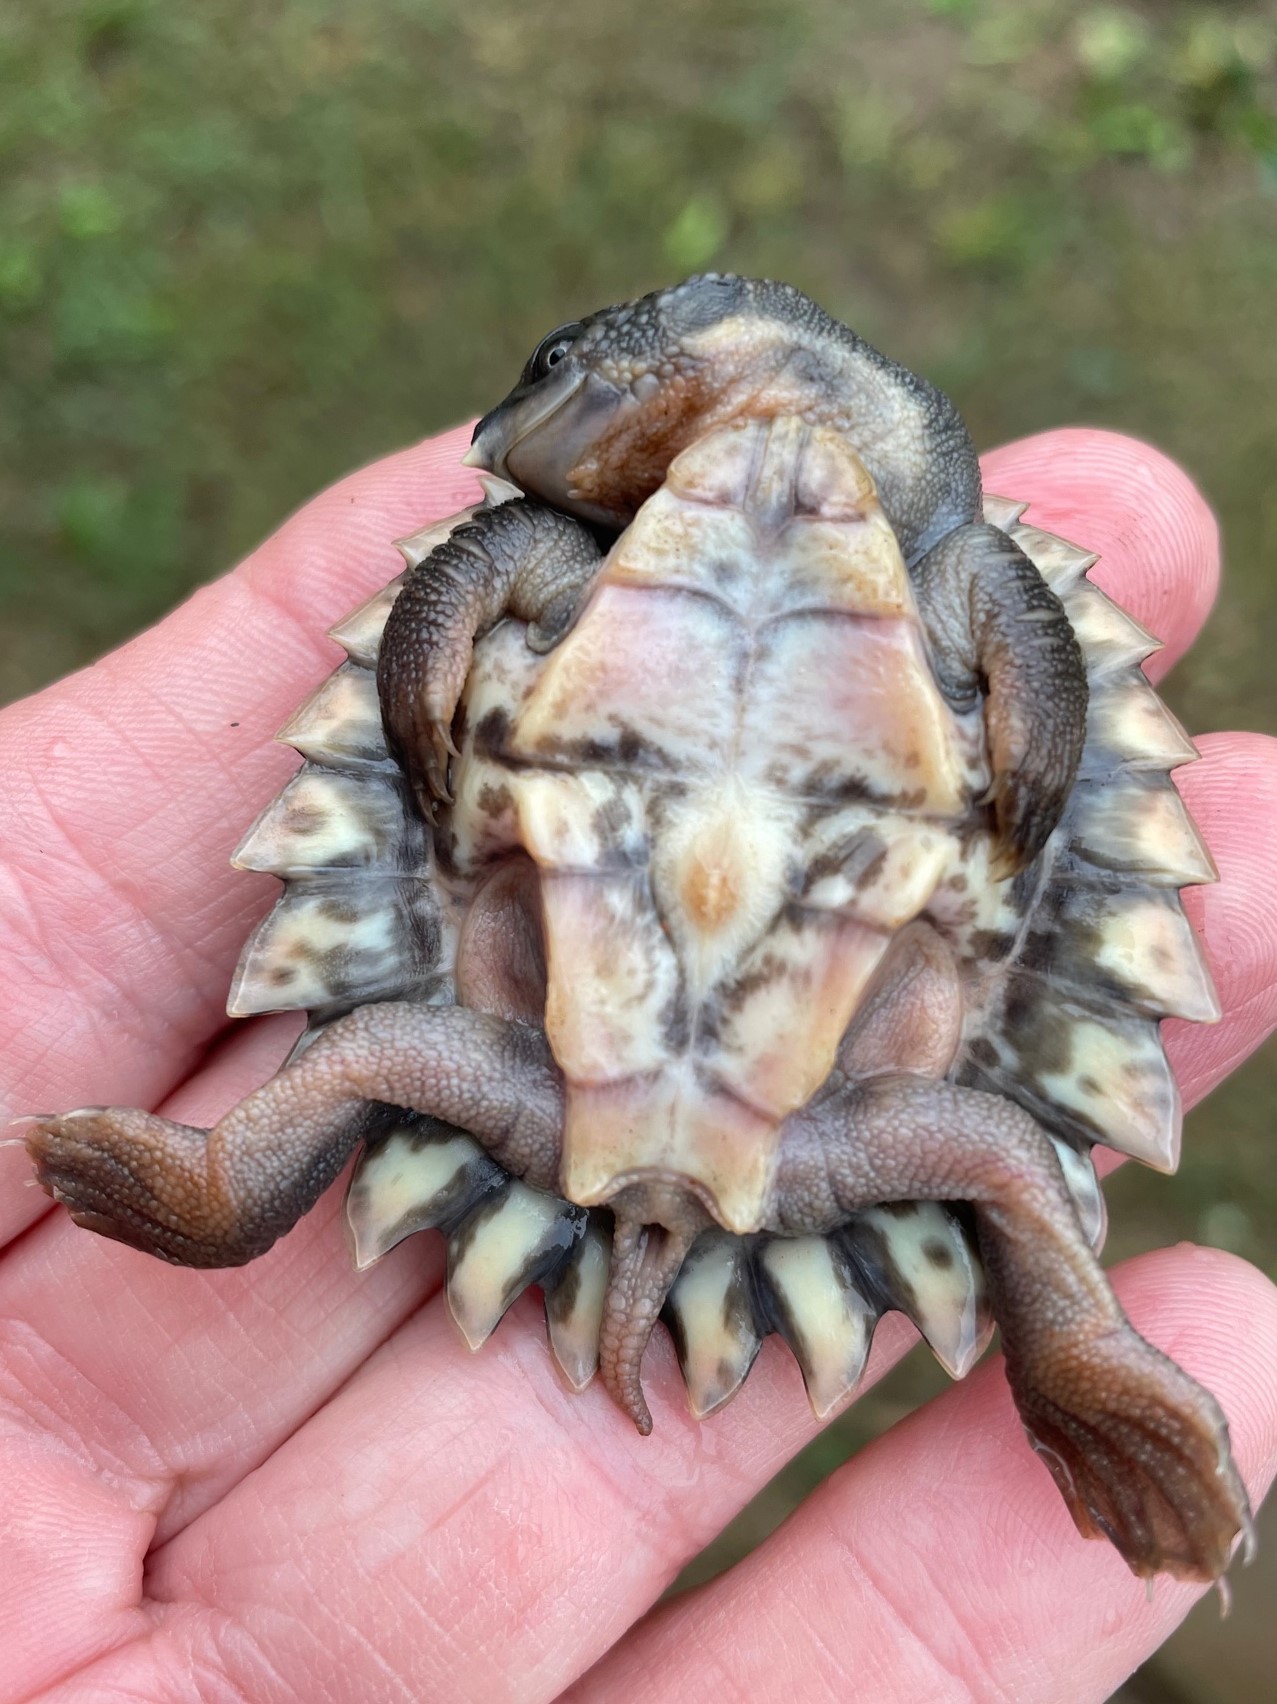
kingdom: Animalia
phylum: Chordata
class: Testudines
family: Chelidae
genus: Elseya
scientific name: Elseya albagula
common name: White-throated snapping turtle
